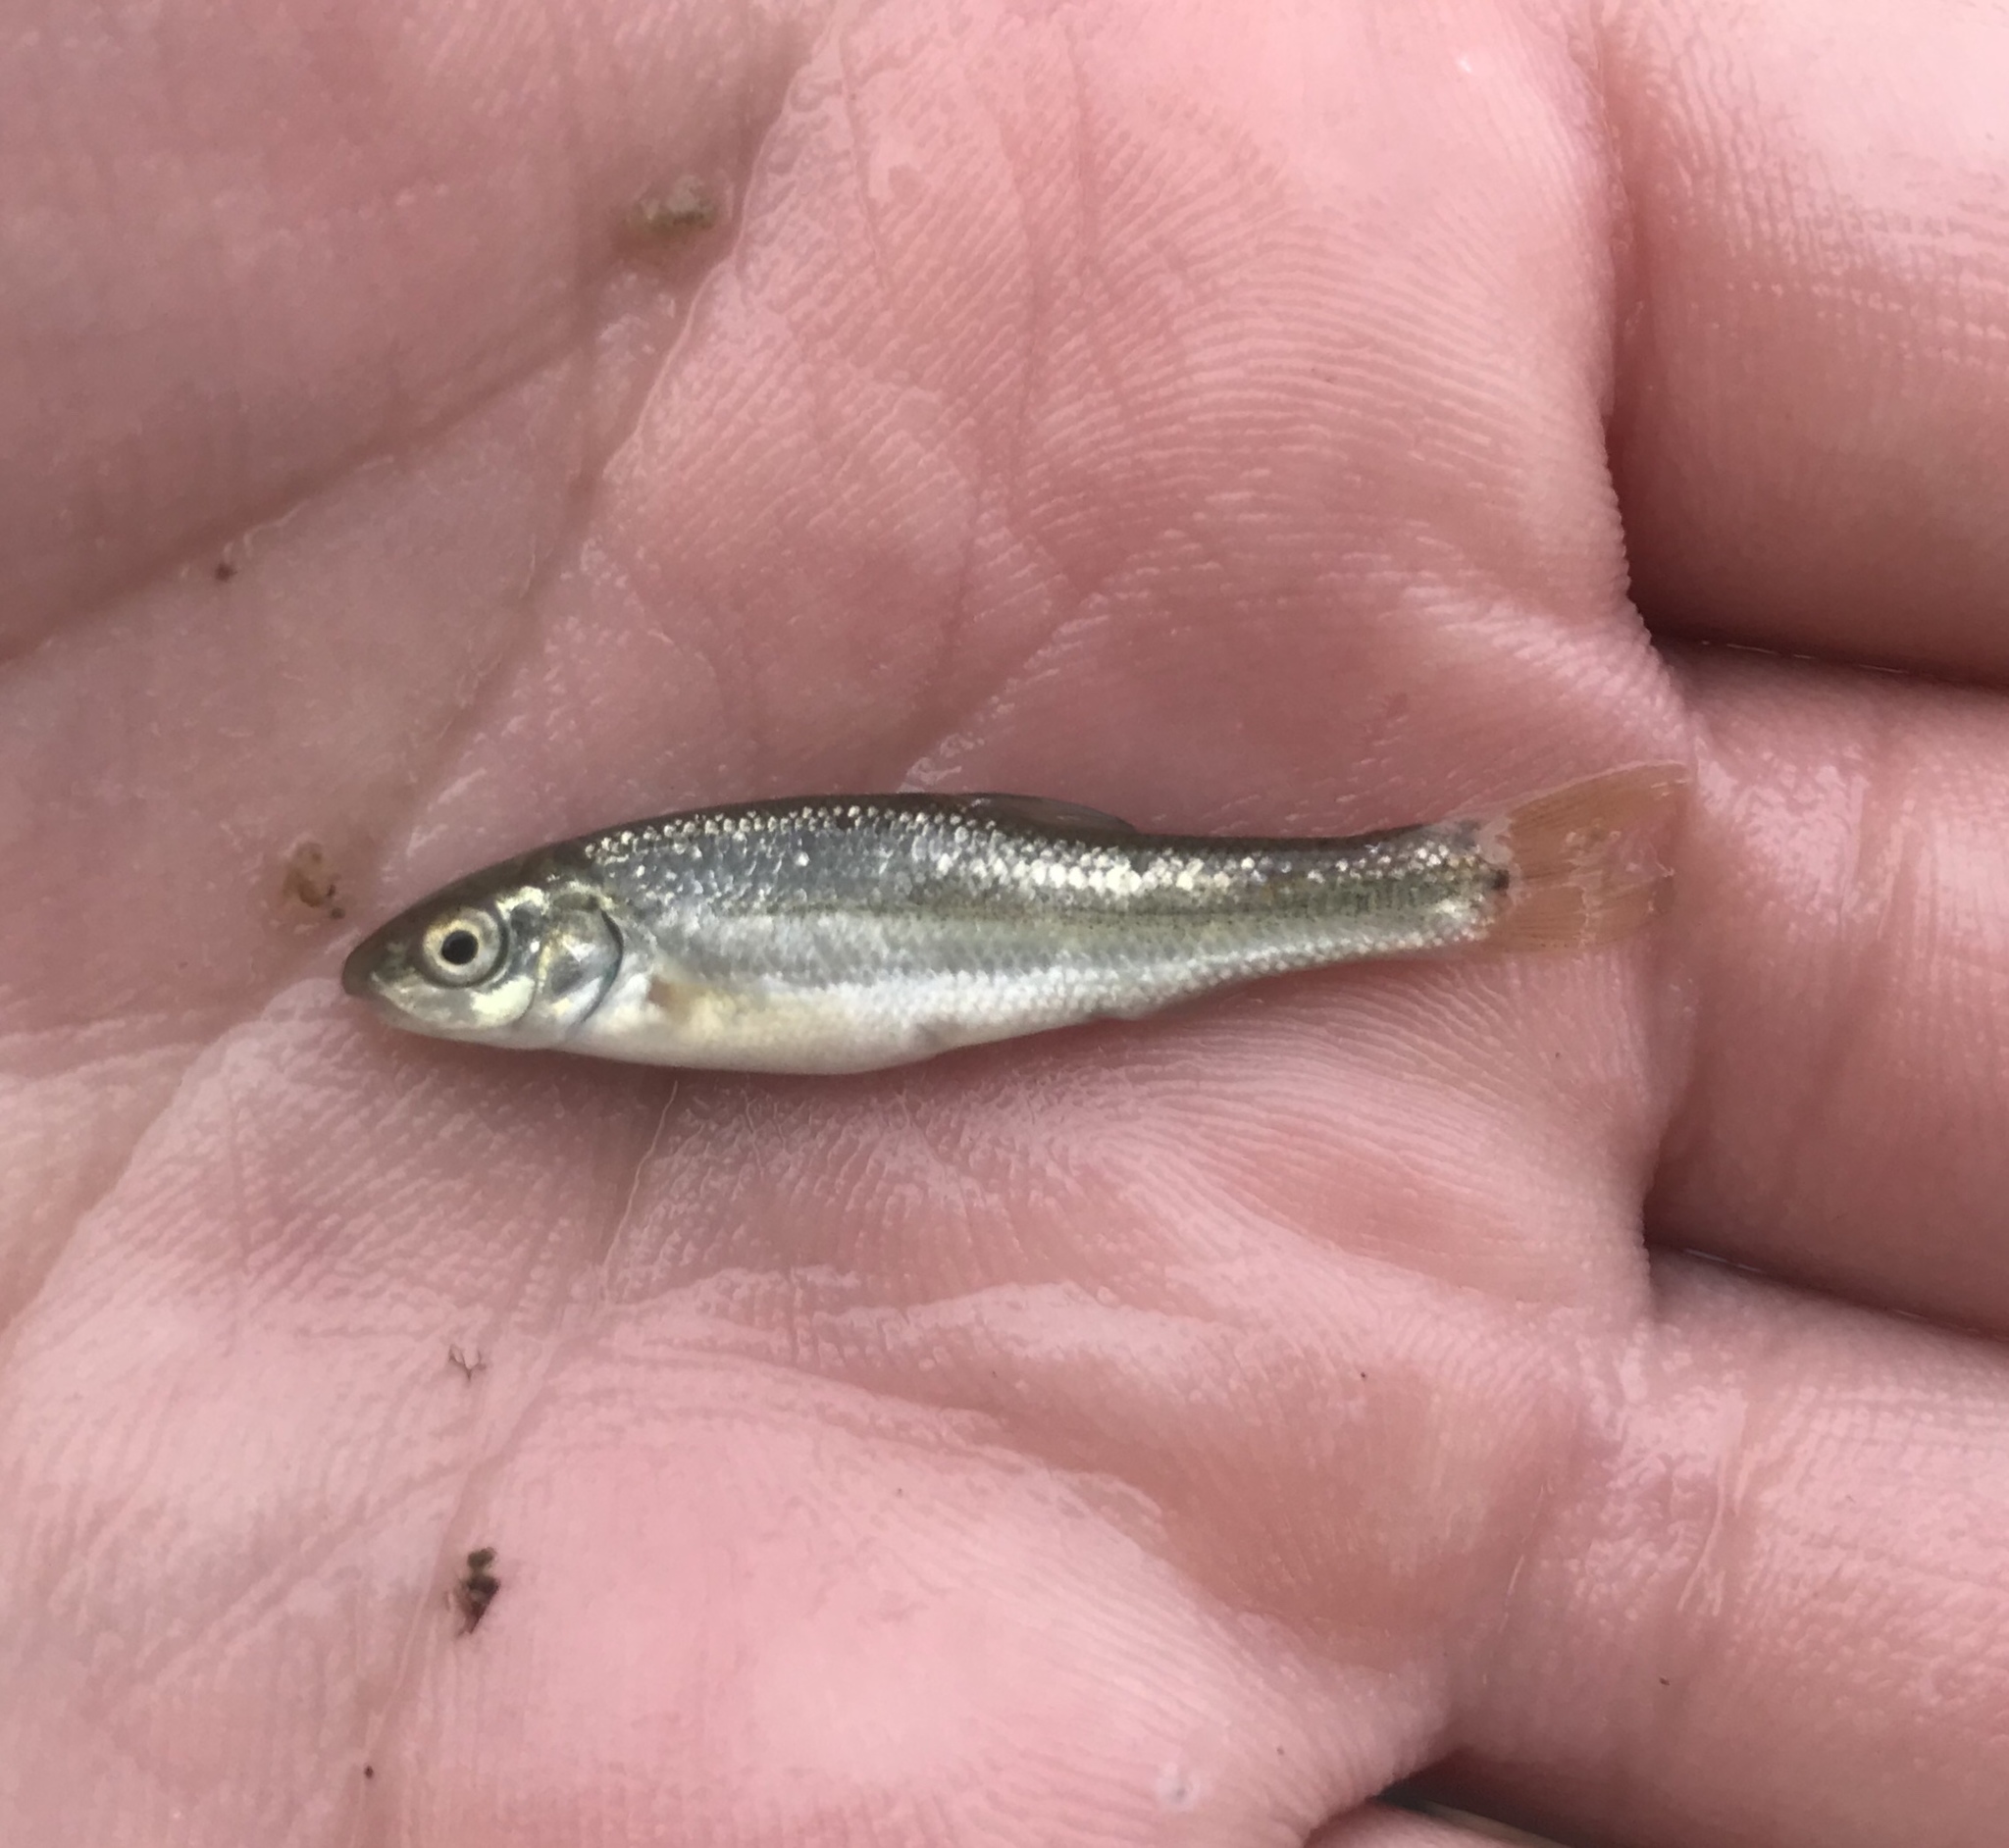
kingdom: Animalia
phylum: Chordata
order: Cypriniformes
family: Cyprinidae
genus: Campostoma
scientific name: Campostoma anomalum
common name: Central stoneroller
